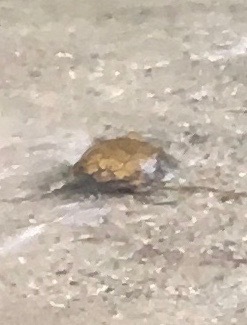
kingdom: Animalia
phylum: Chordata
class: Testudines
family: Emydidae
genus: Actinemys
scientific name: Actinemys marmorata
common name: Western pond turtle
